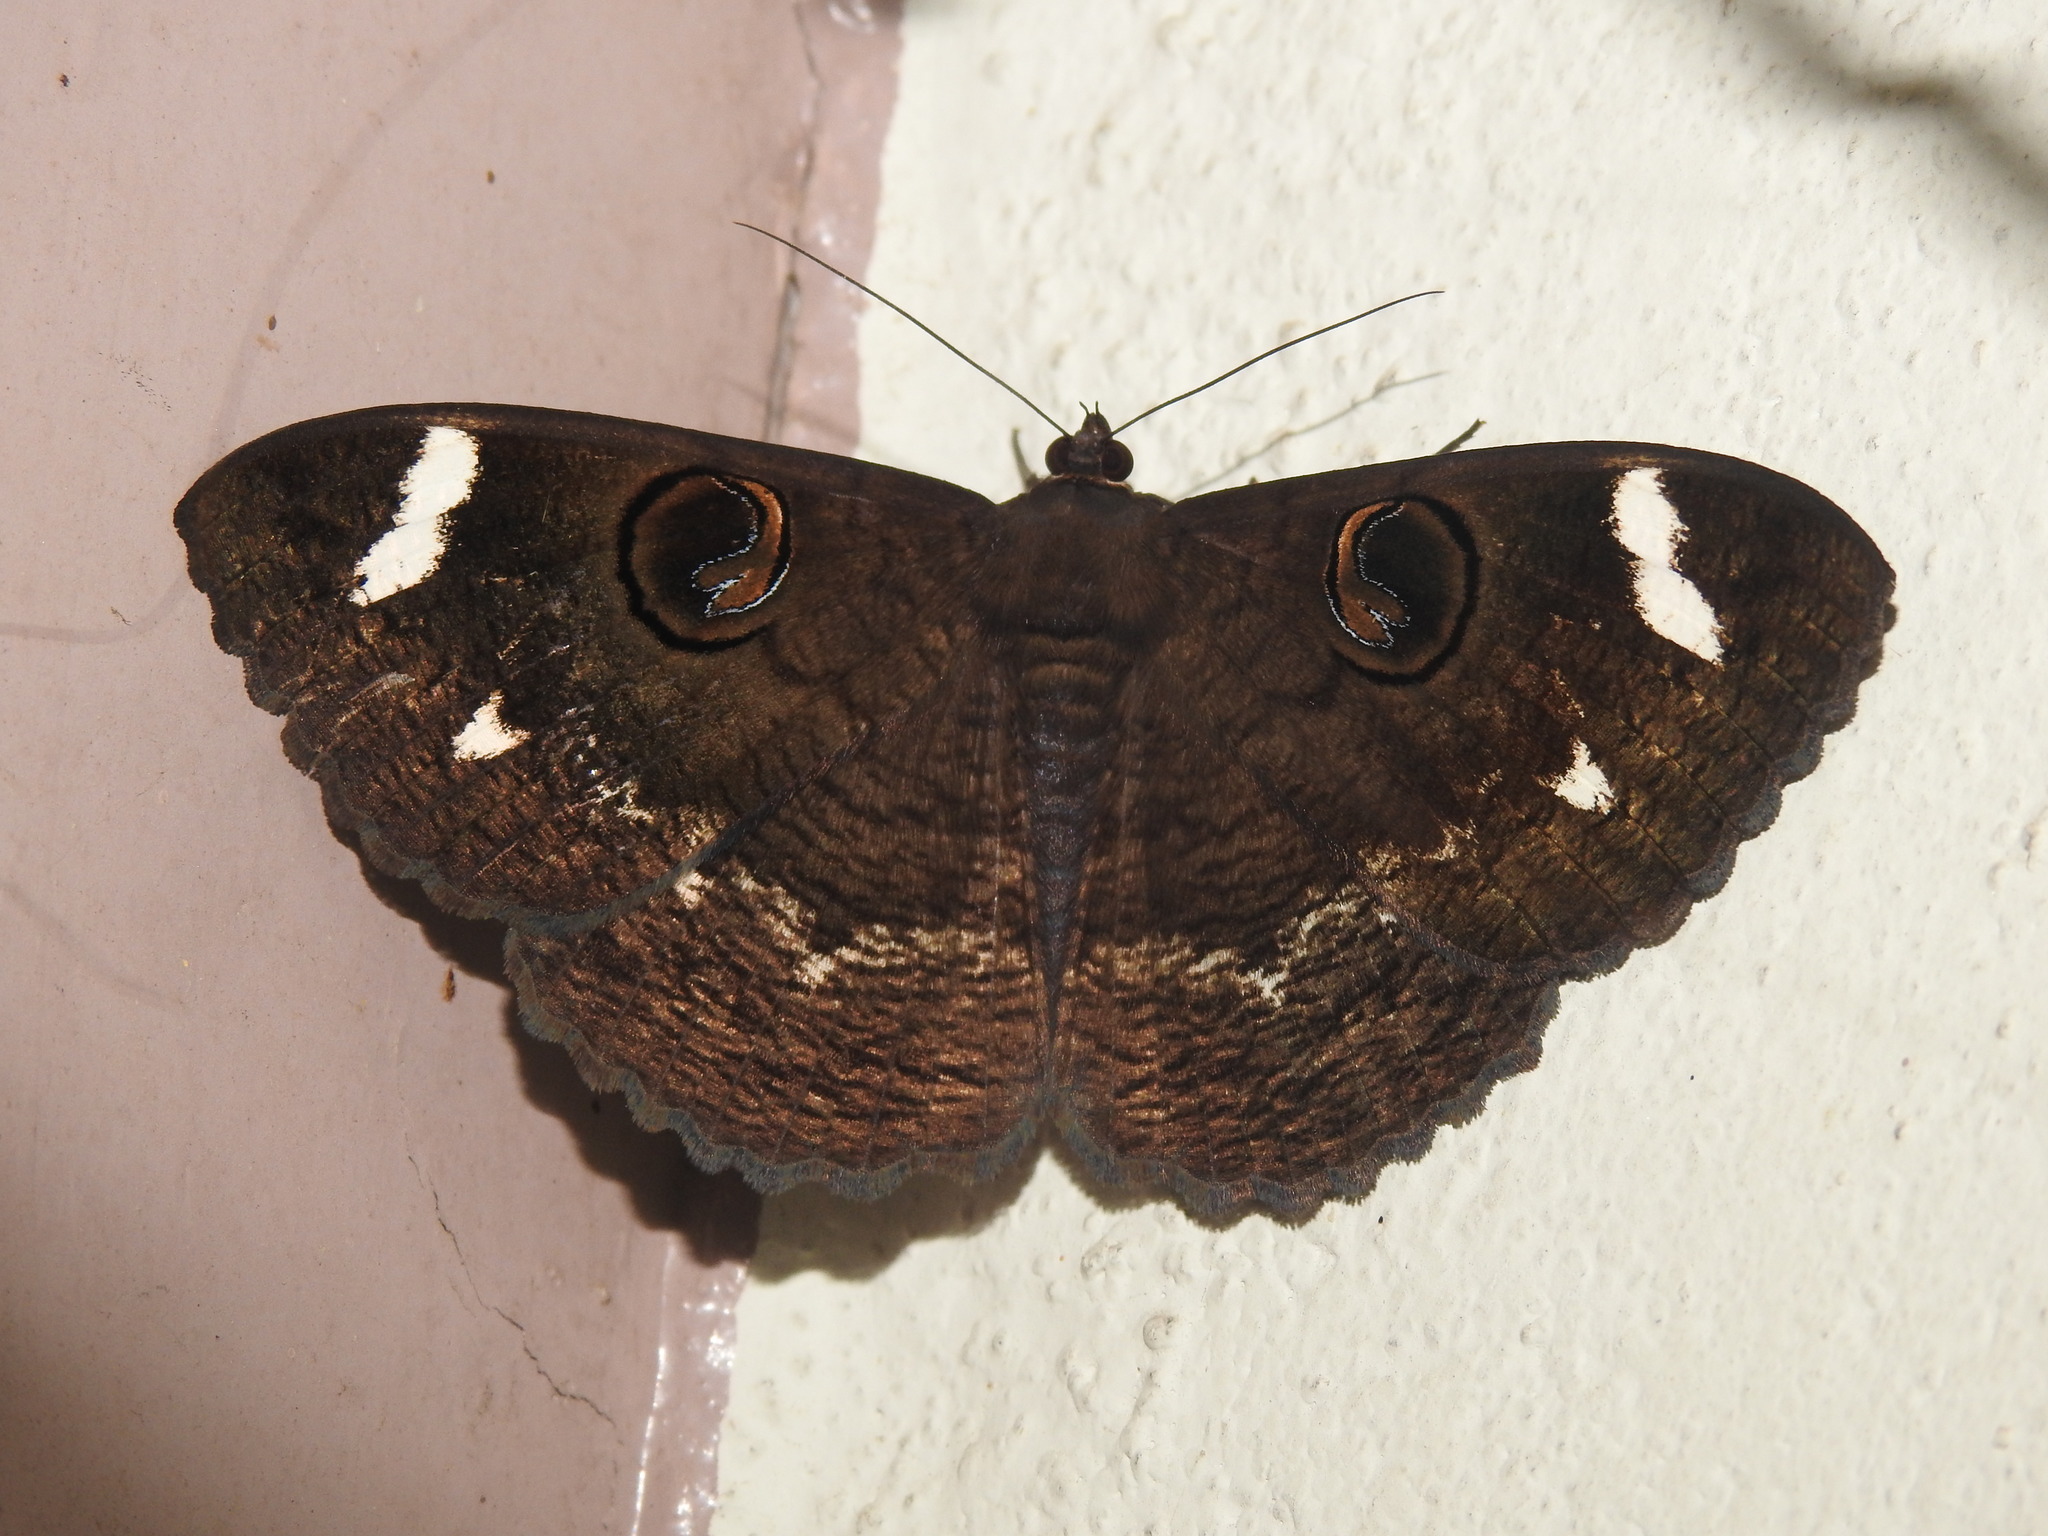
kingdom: Animalia
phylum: Arthropoda
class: Insecta
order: Lepidoptera
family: Erebidae
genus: Erebus
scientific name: Erebus hieroglyphica
